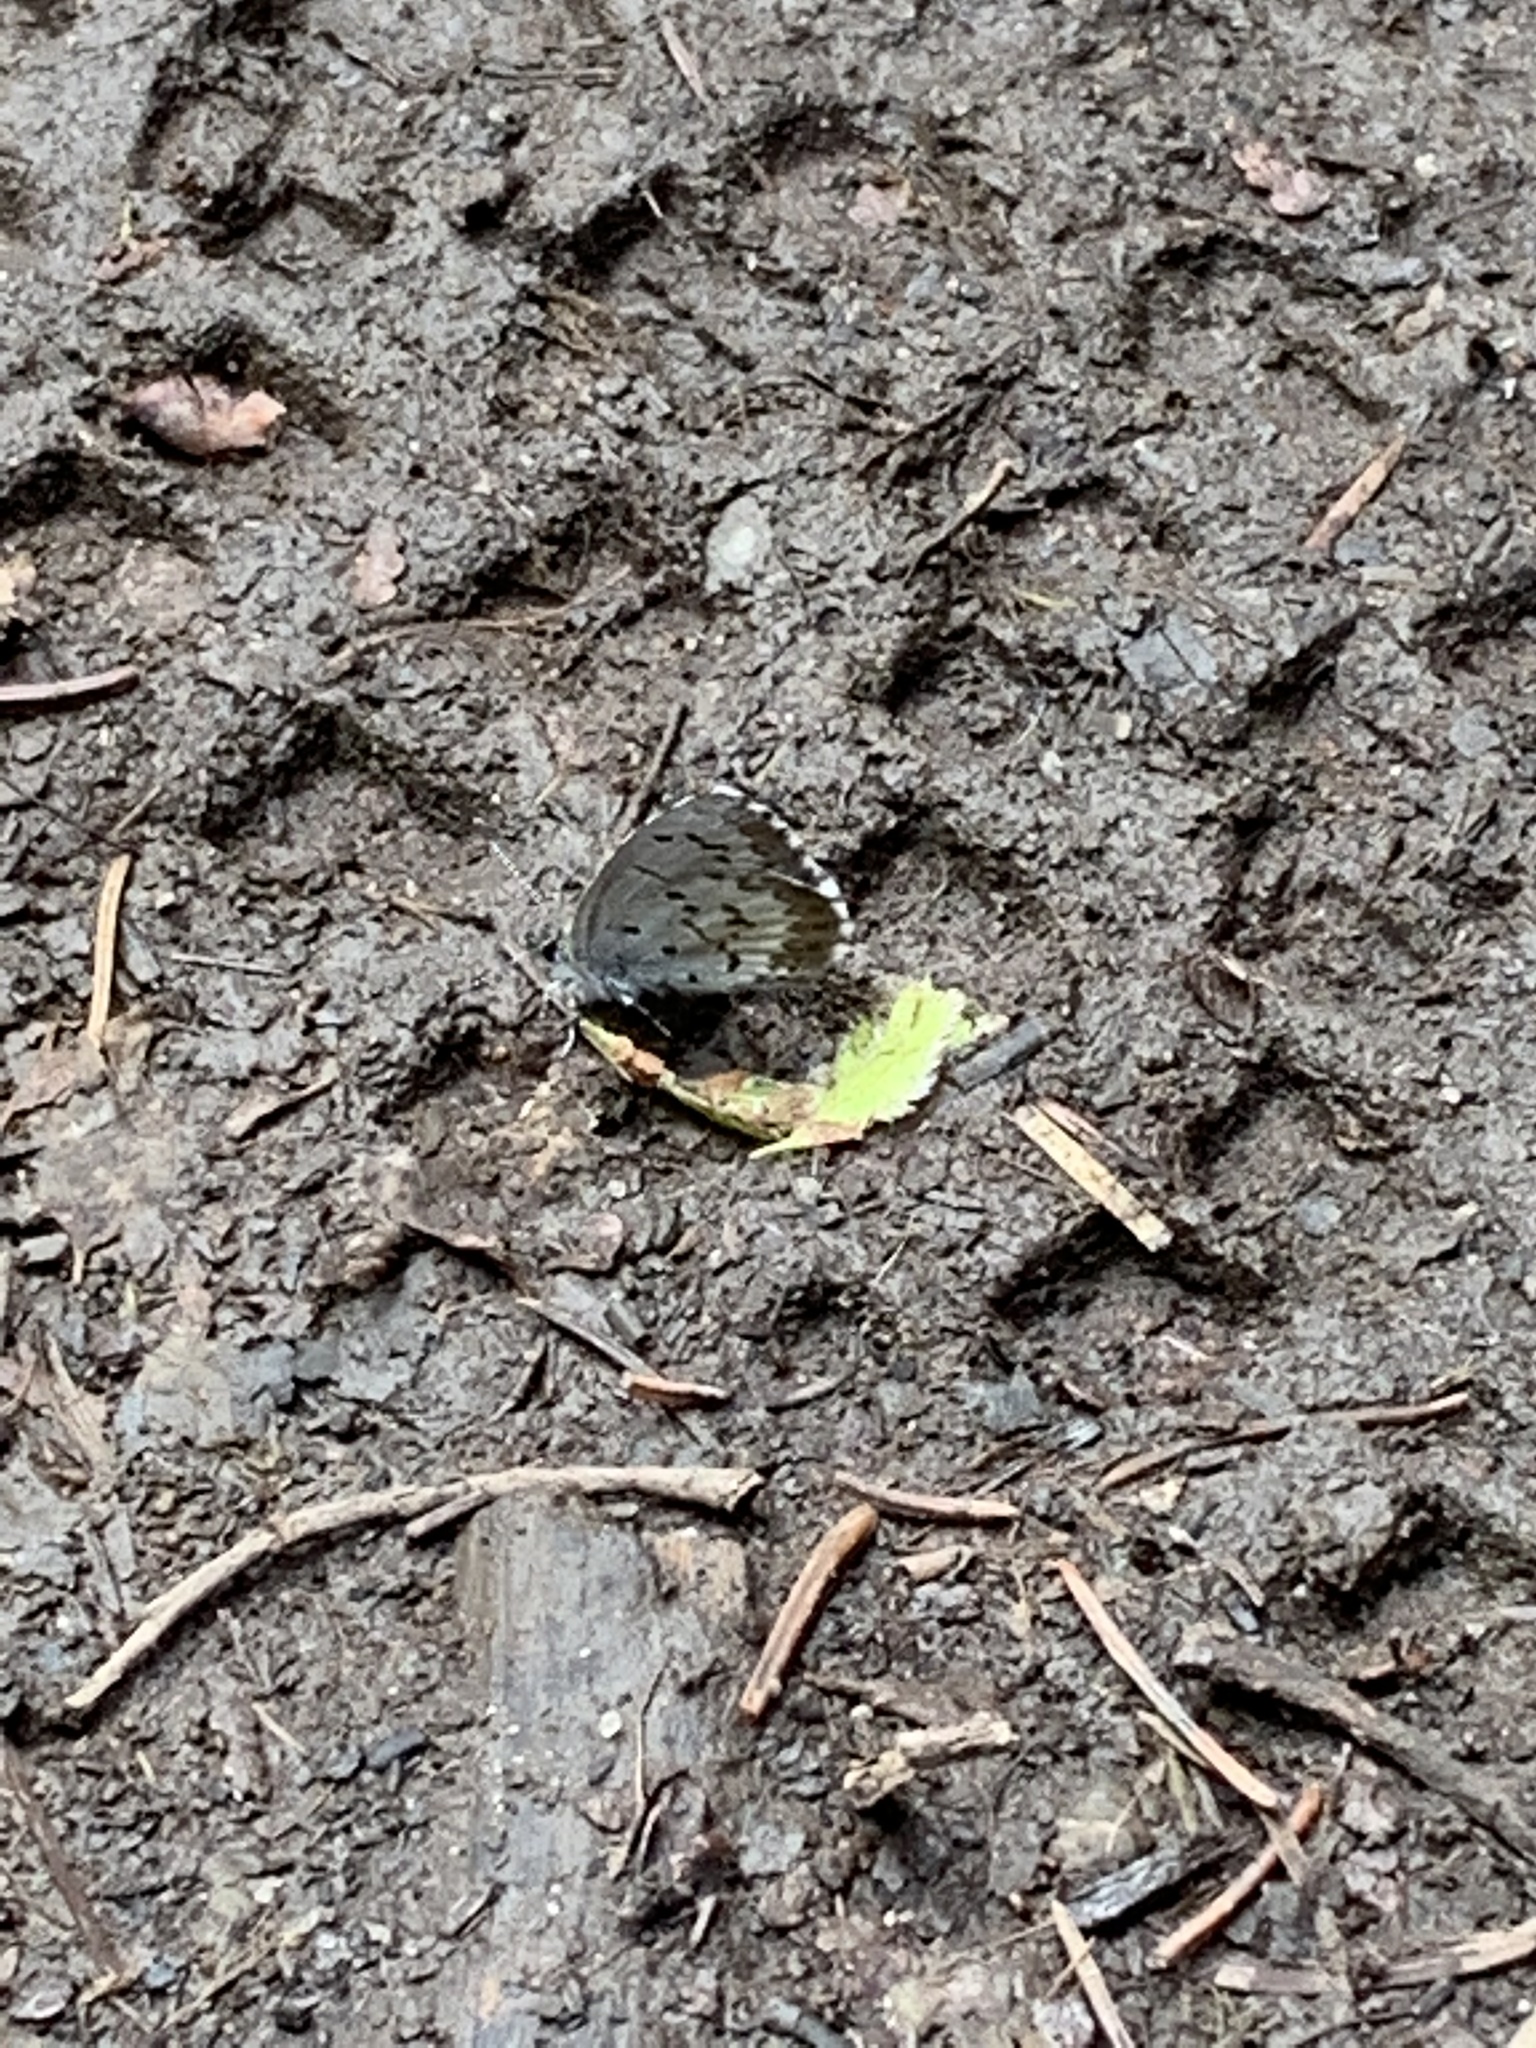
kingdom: Animalia
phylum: Arthropoda
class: Insecta
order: Lepidoptera
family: Lycaenidae
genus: Celastrina
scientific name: Celastrina lucia
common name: Lucia azure
